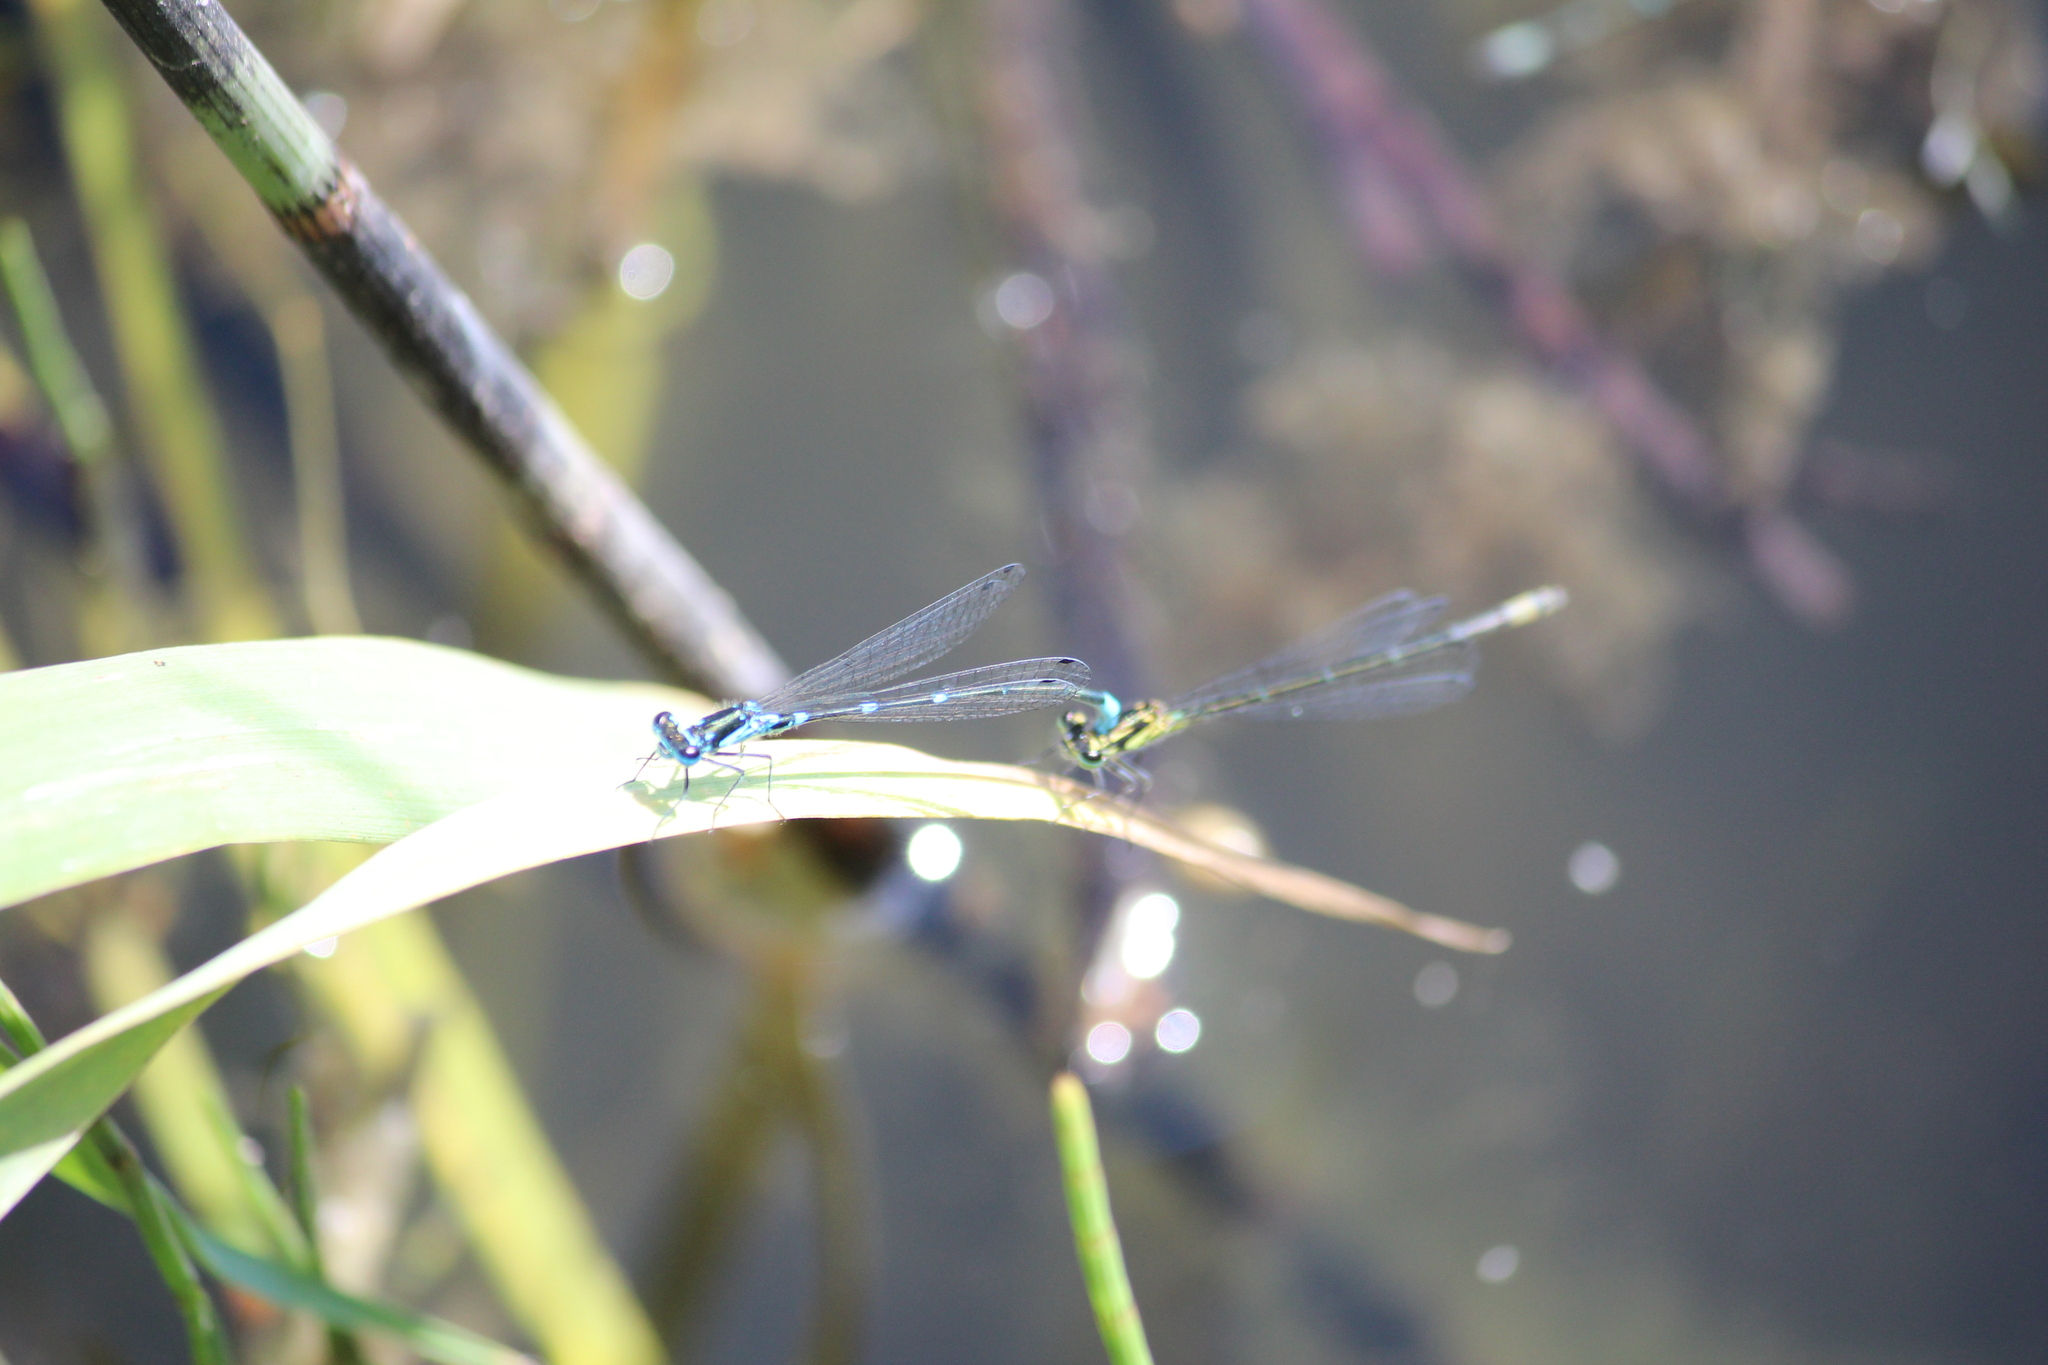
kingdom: Animalia
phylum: Arthropoda
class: Insecta
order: Odonata
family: Coenagrionidae
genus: Coenagrion
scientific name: Coenagrion pulchellum
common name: Variable bluet
